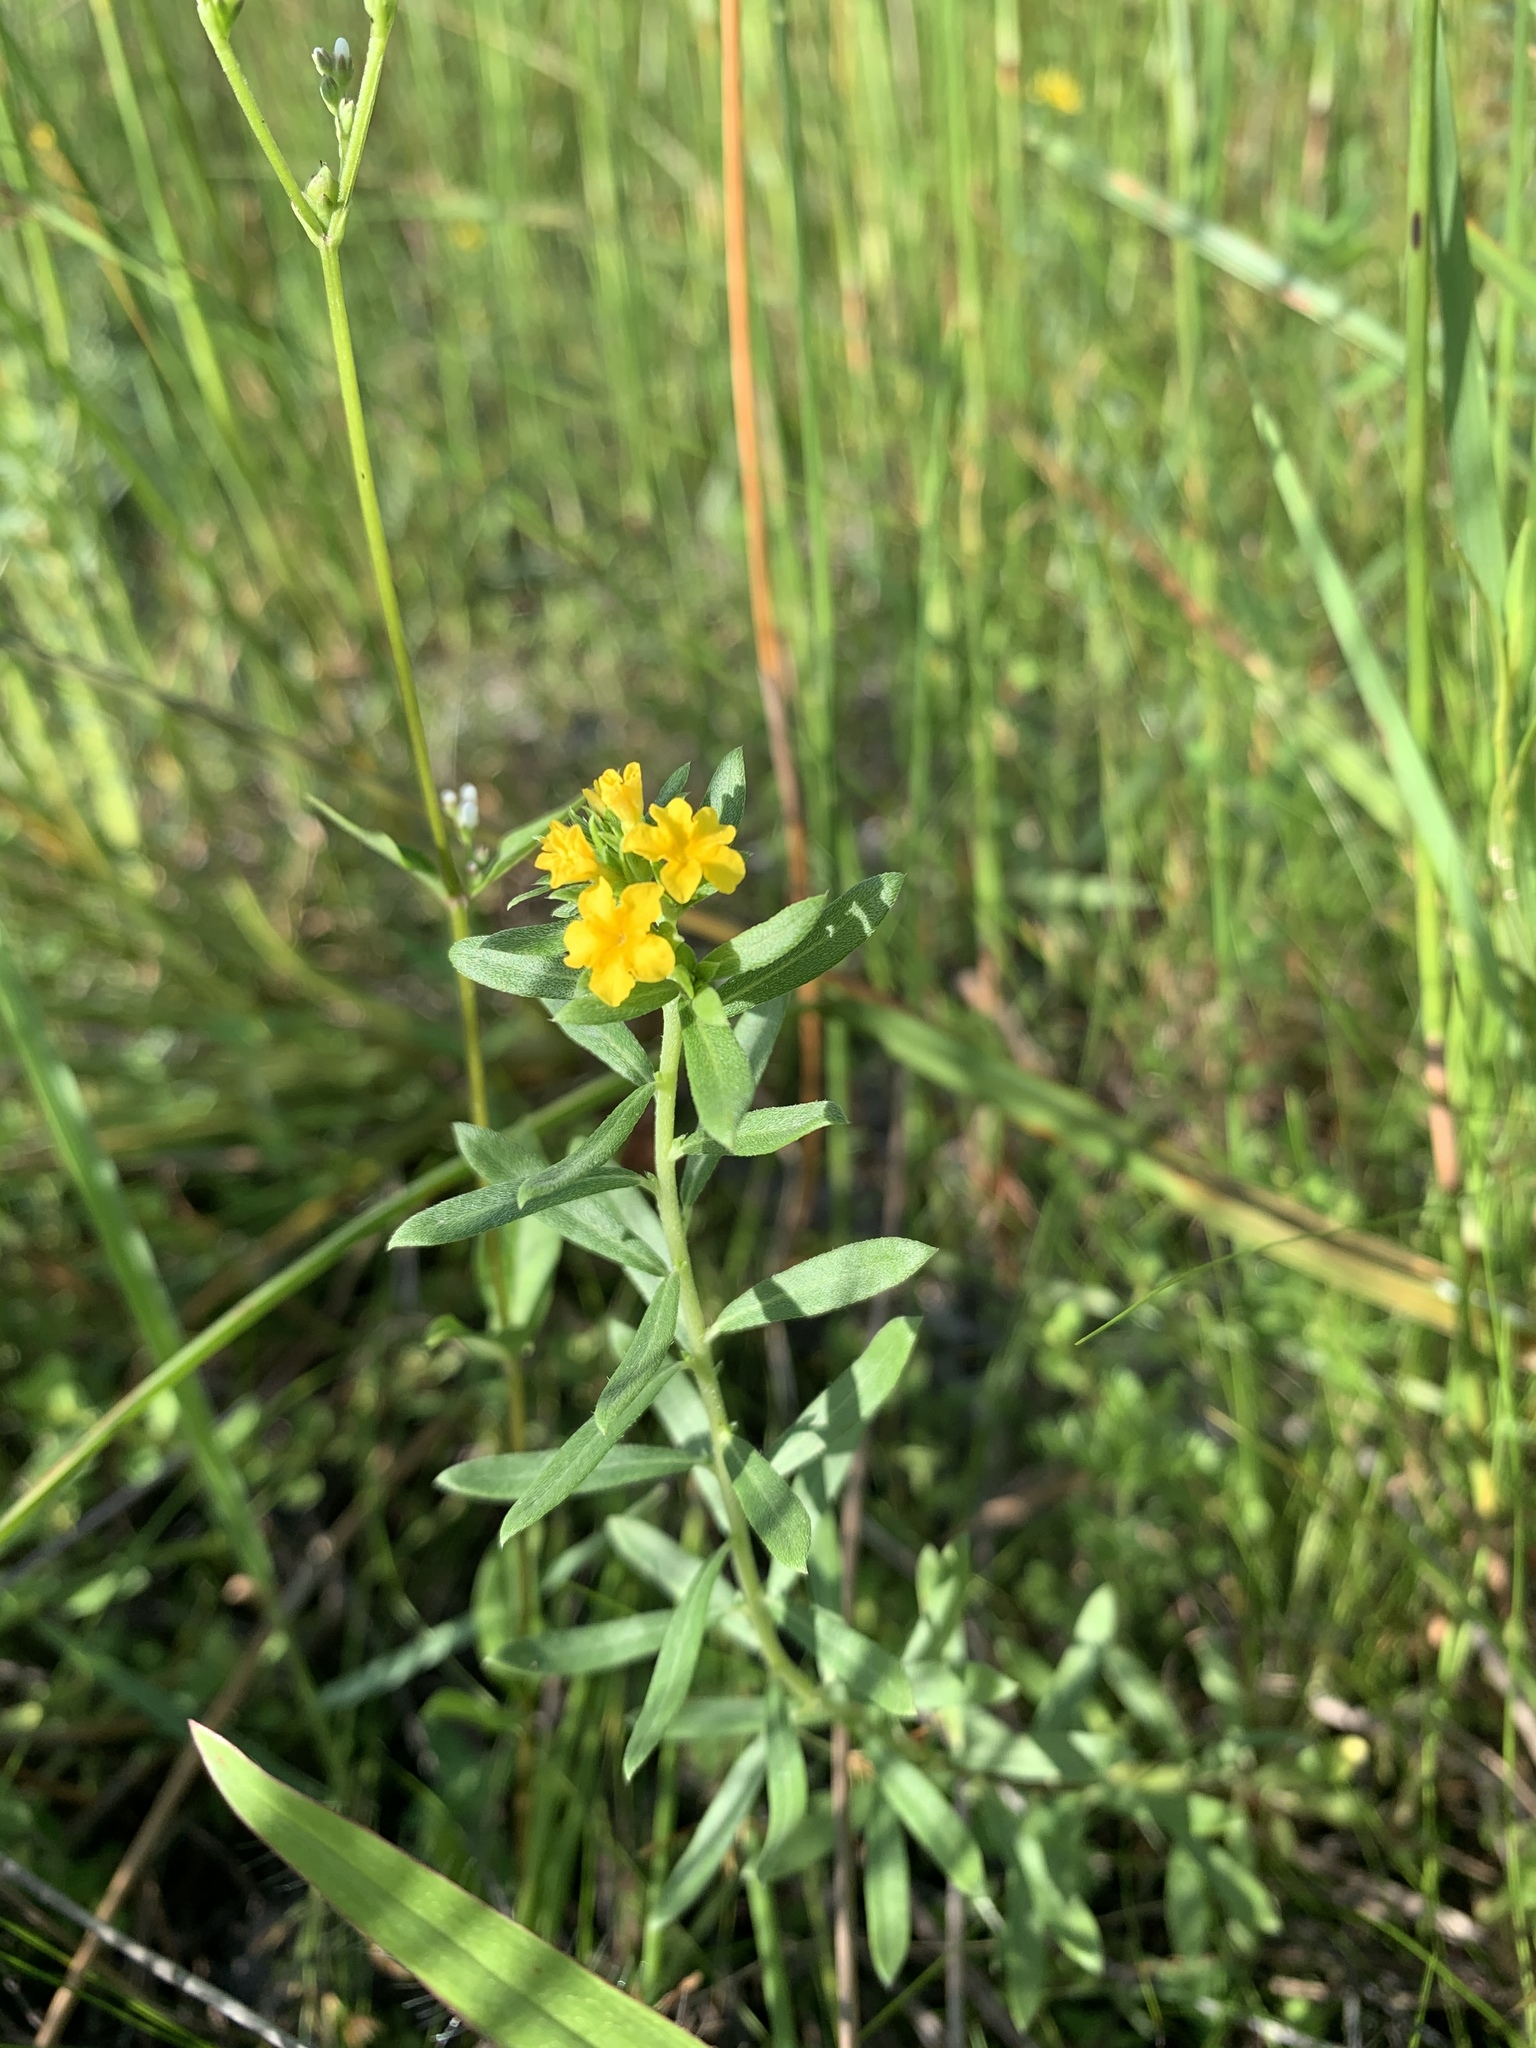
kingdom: Plantae
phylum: Tracheophyta
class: Magnoliopsida
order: Boraginales
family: Heliotropiaceae
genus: Euploca
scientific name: Euploca polyphylla
